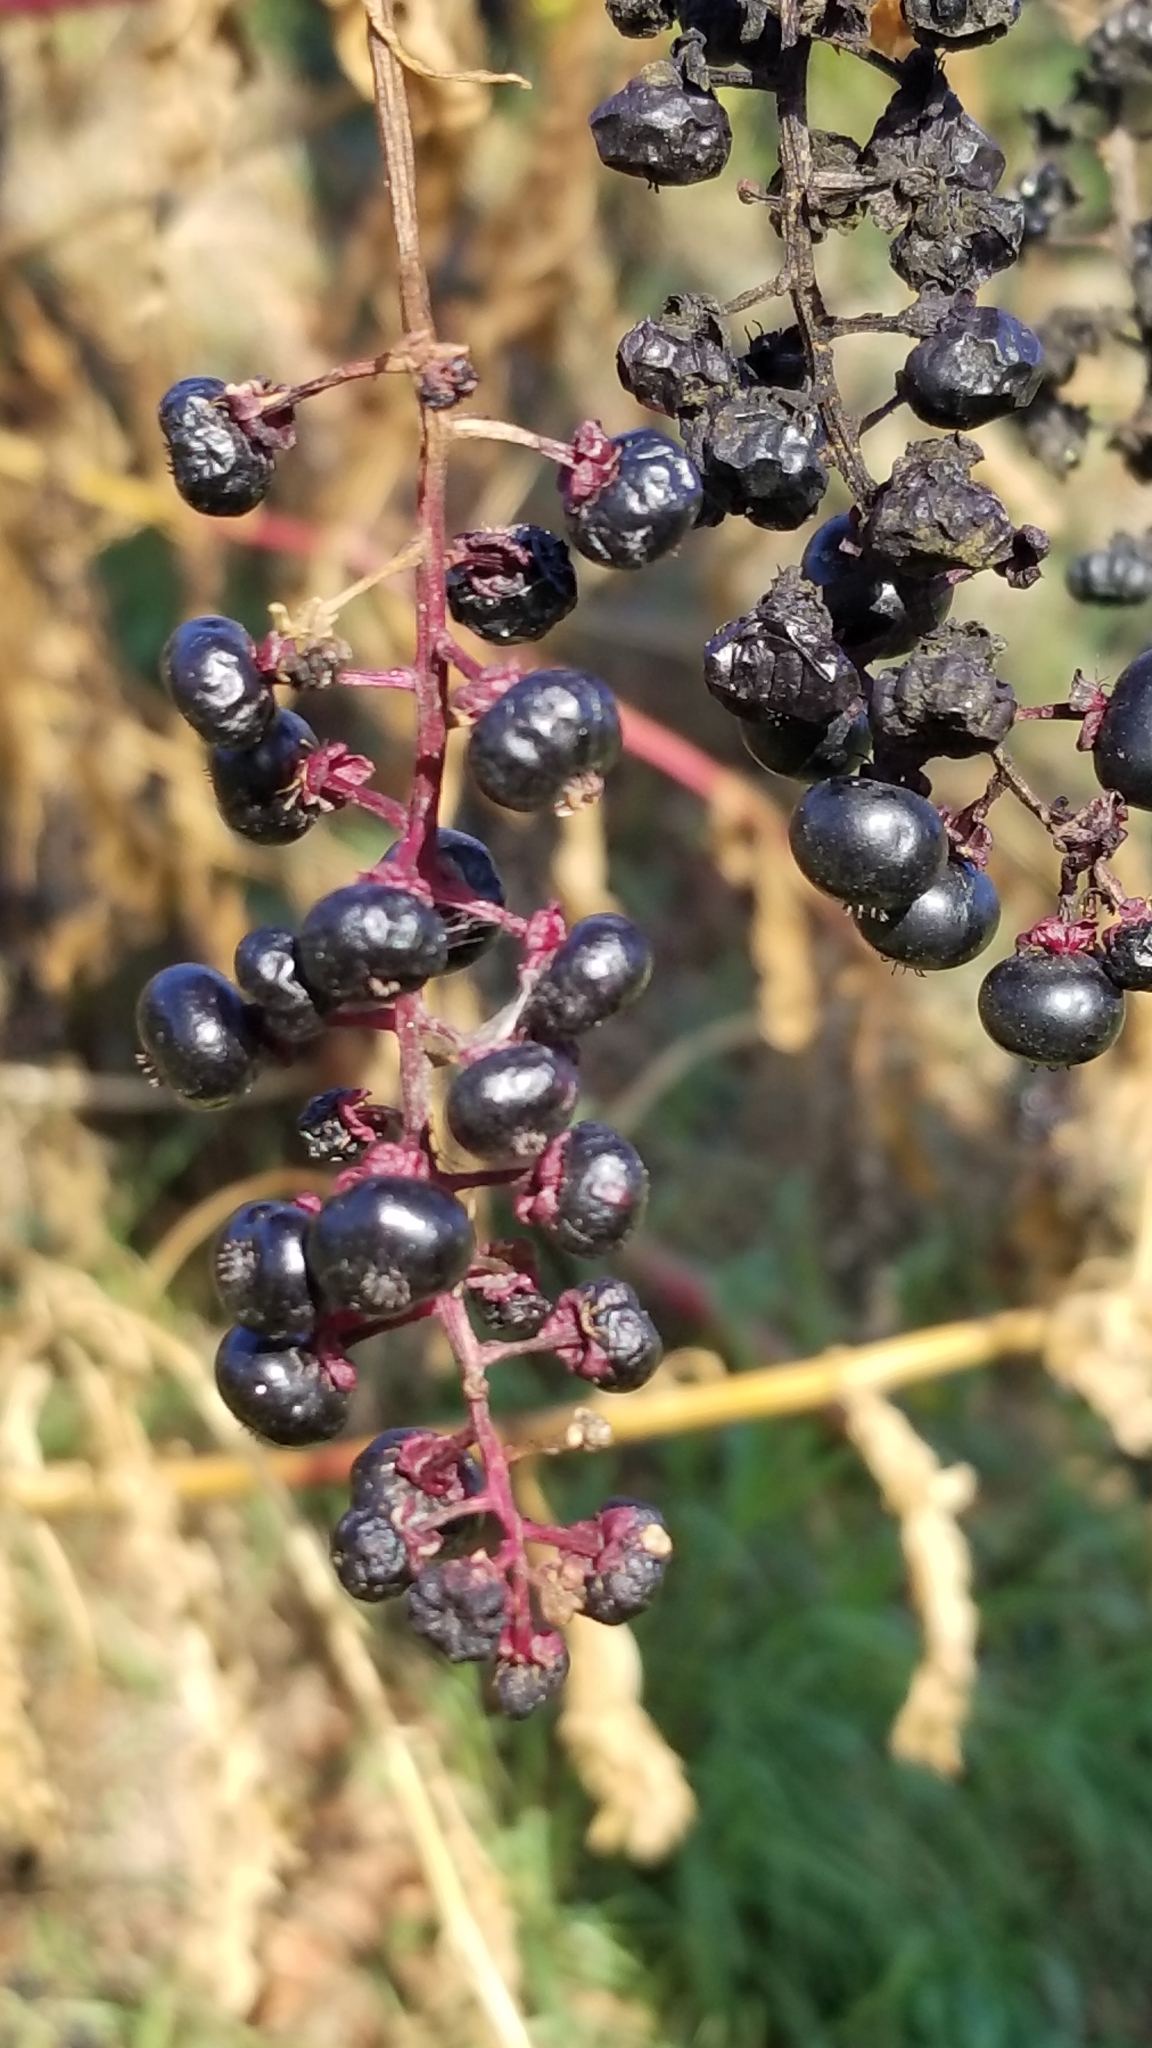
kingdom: Plantae
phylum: Tracheophyta
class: Magnoliopsida
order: Caryophyllales
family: Phytolaccaceae
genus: Phytolacca
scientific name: Phytolacca americana
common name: American pokeweed
